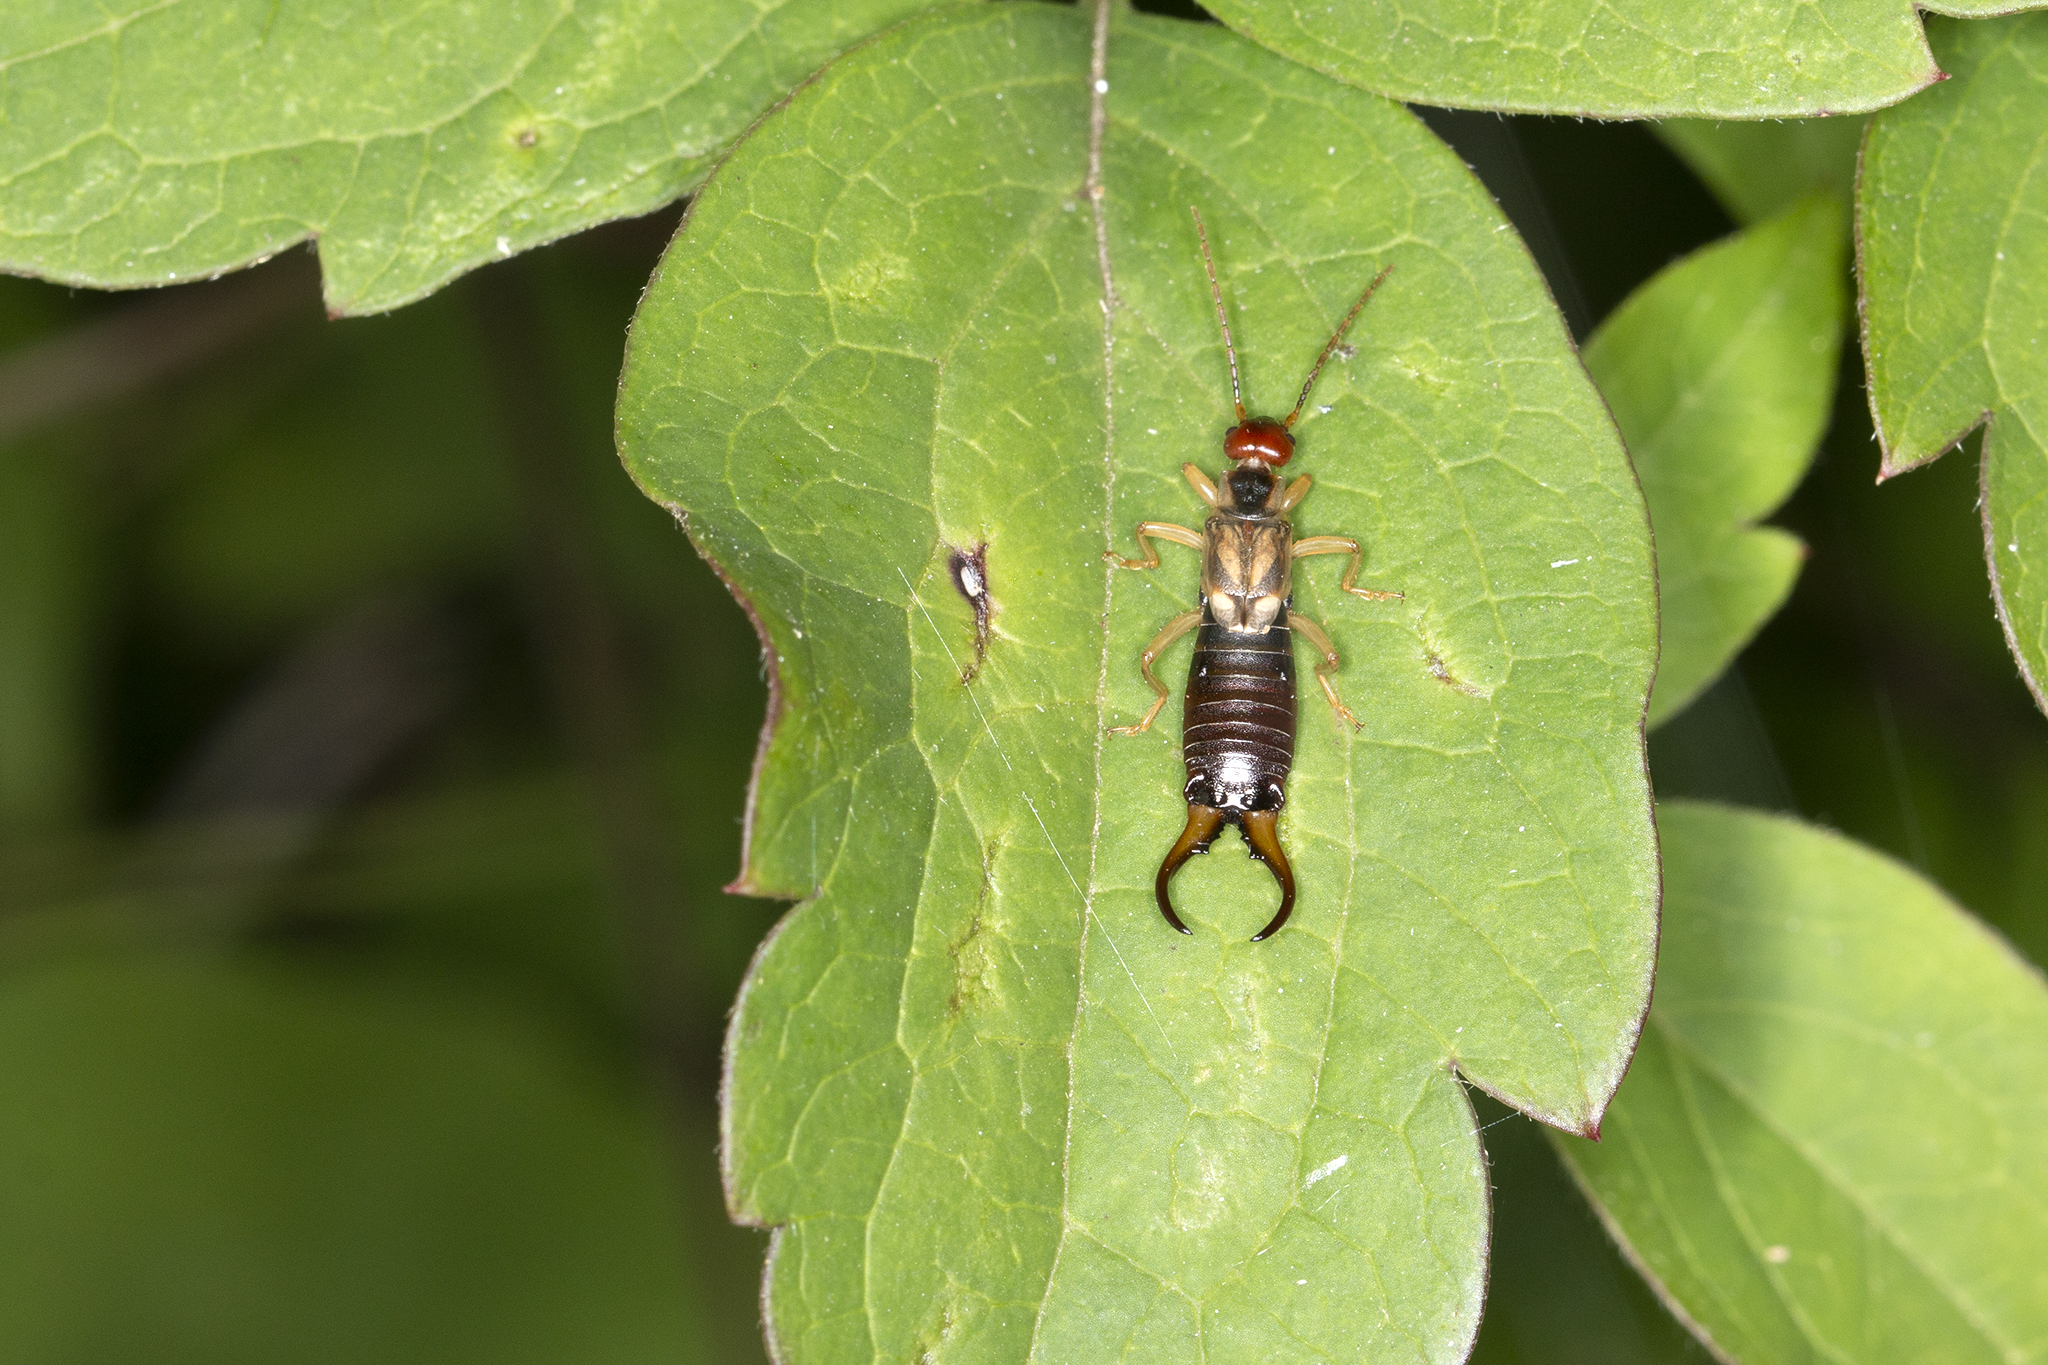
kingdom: Animalia
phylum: Arthropoda
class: Insecta
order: Dermaptera
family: Forficulidae
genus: Forficula
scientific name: Forficula
